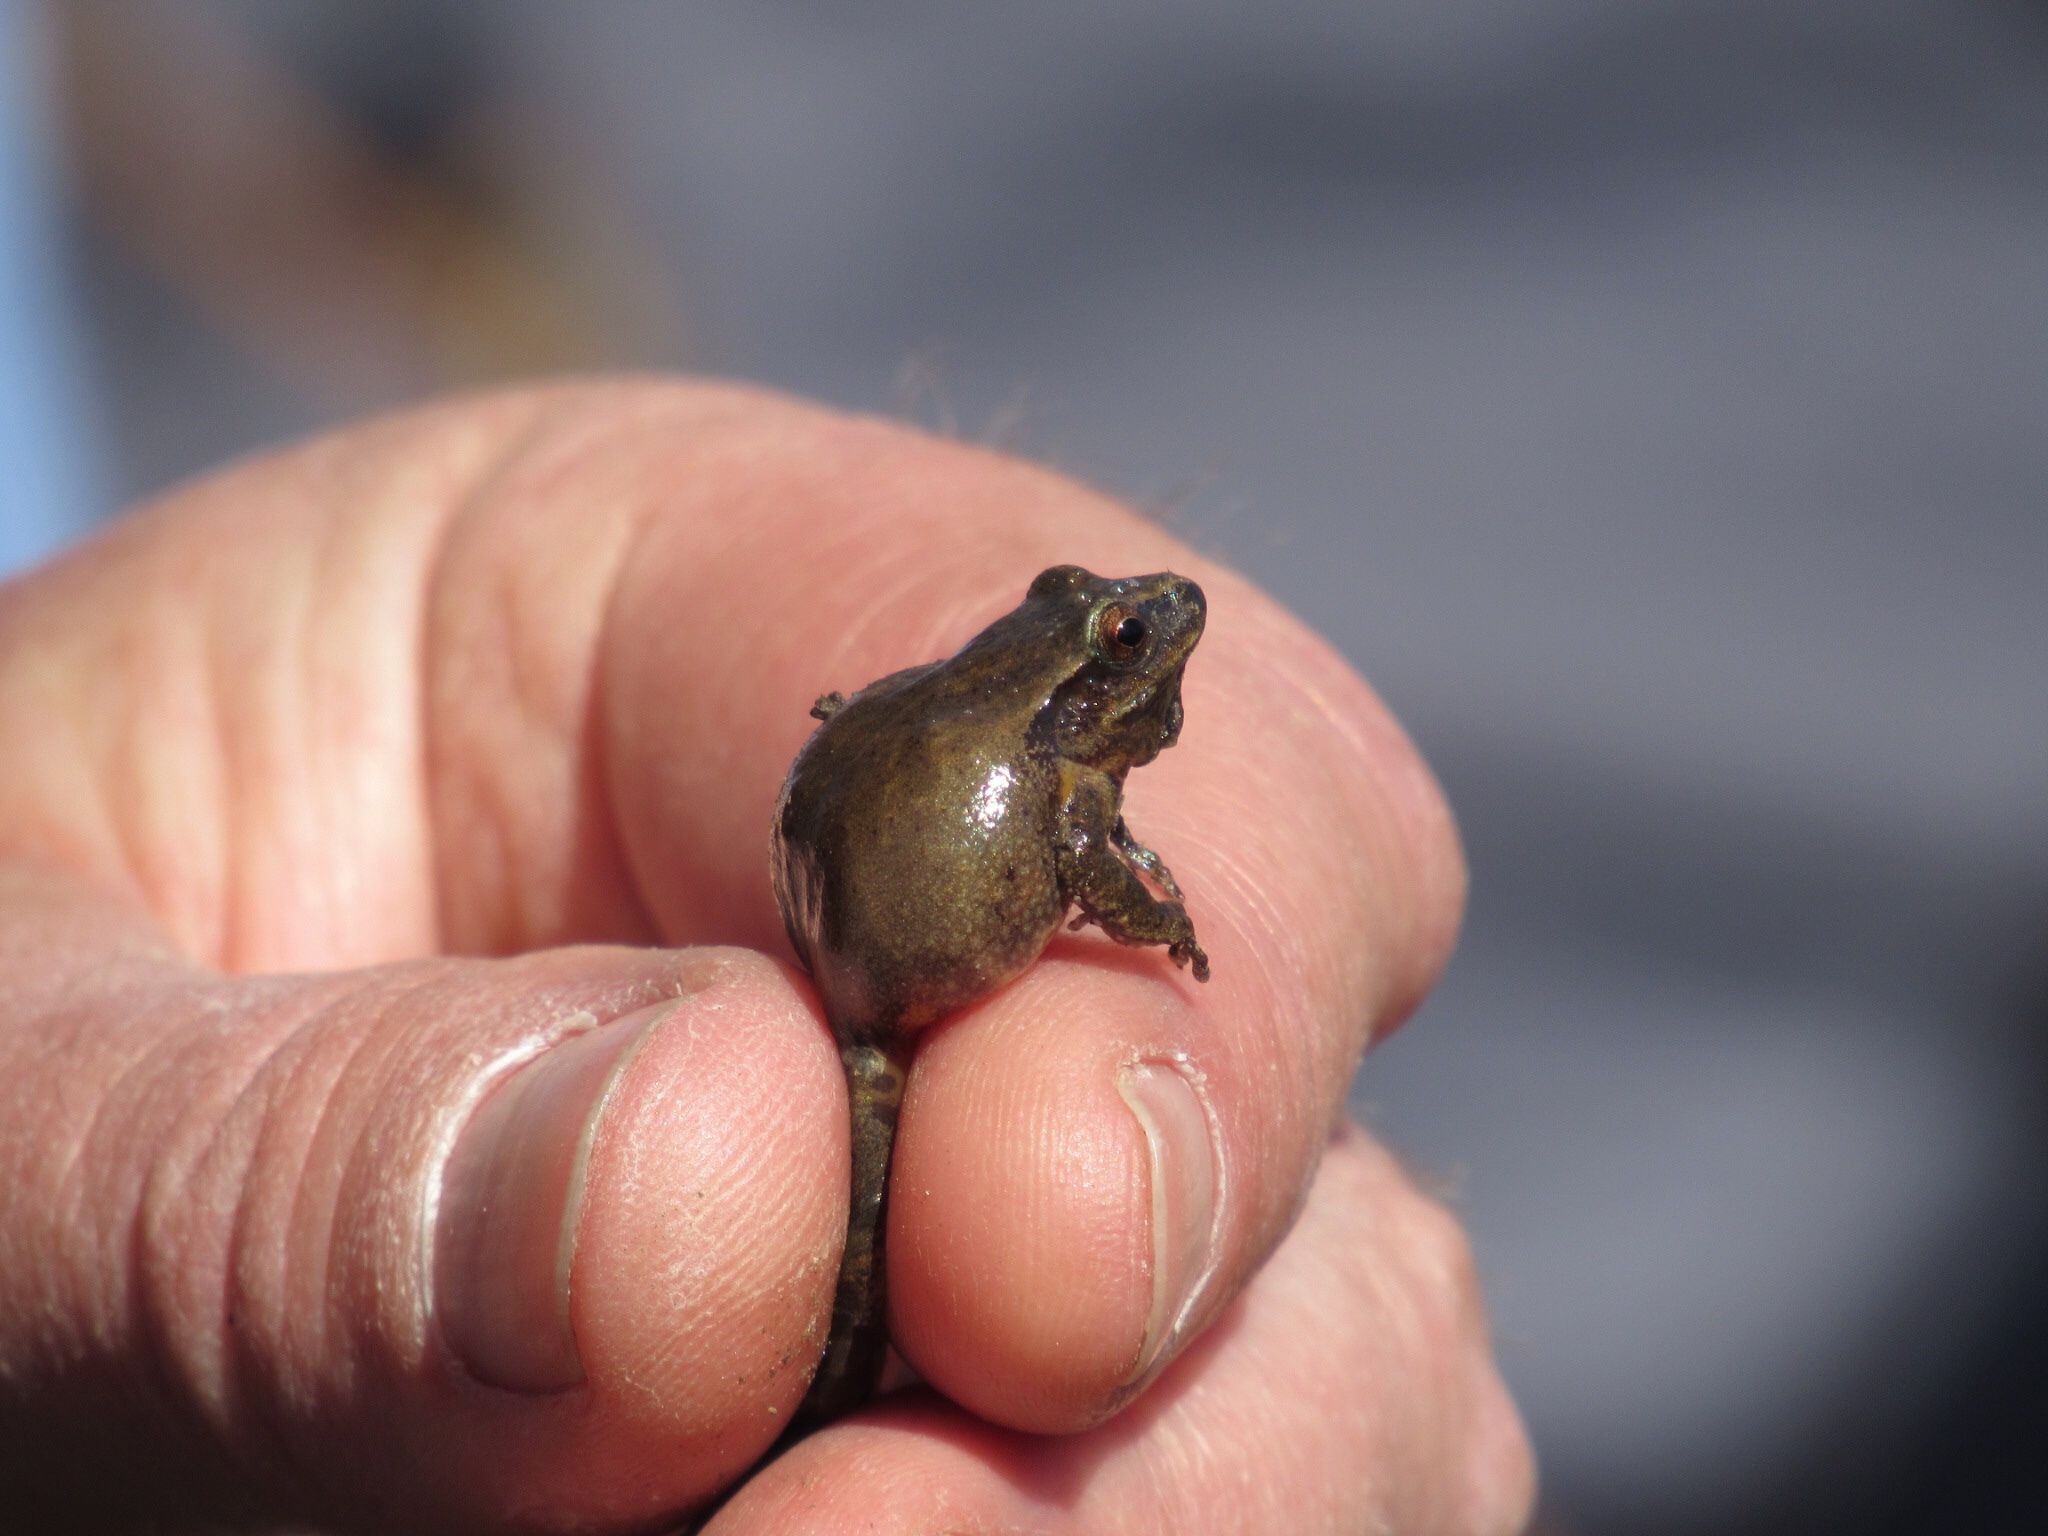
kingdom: Animalia
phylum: Chordata
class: Amphibia
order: Anura
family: Hylidae
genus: Pseudacris
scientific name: Pseudacris crucifer
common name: Spring peeper
